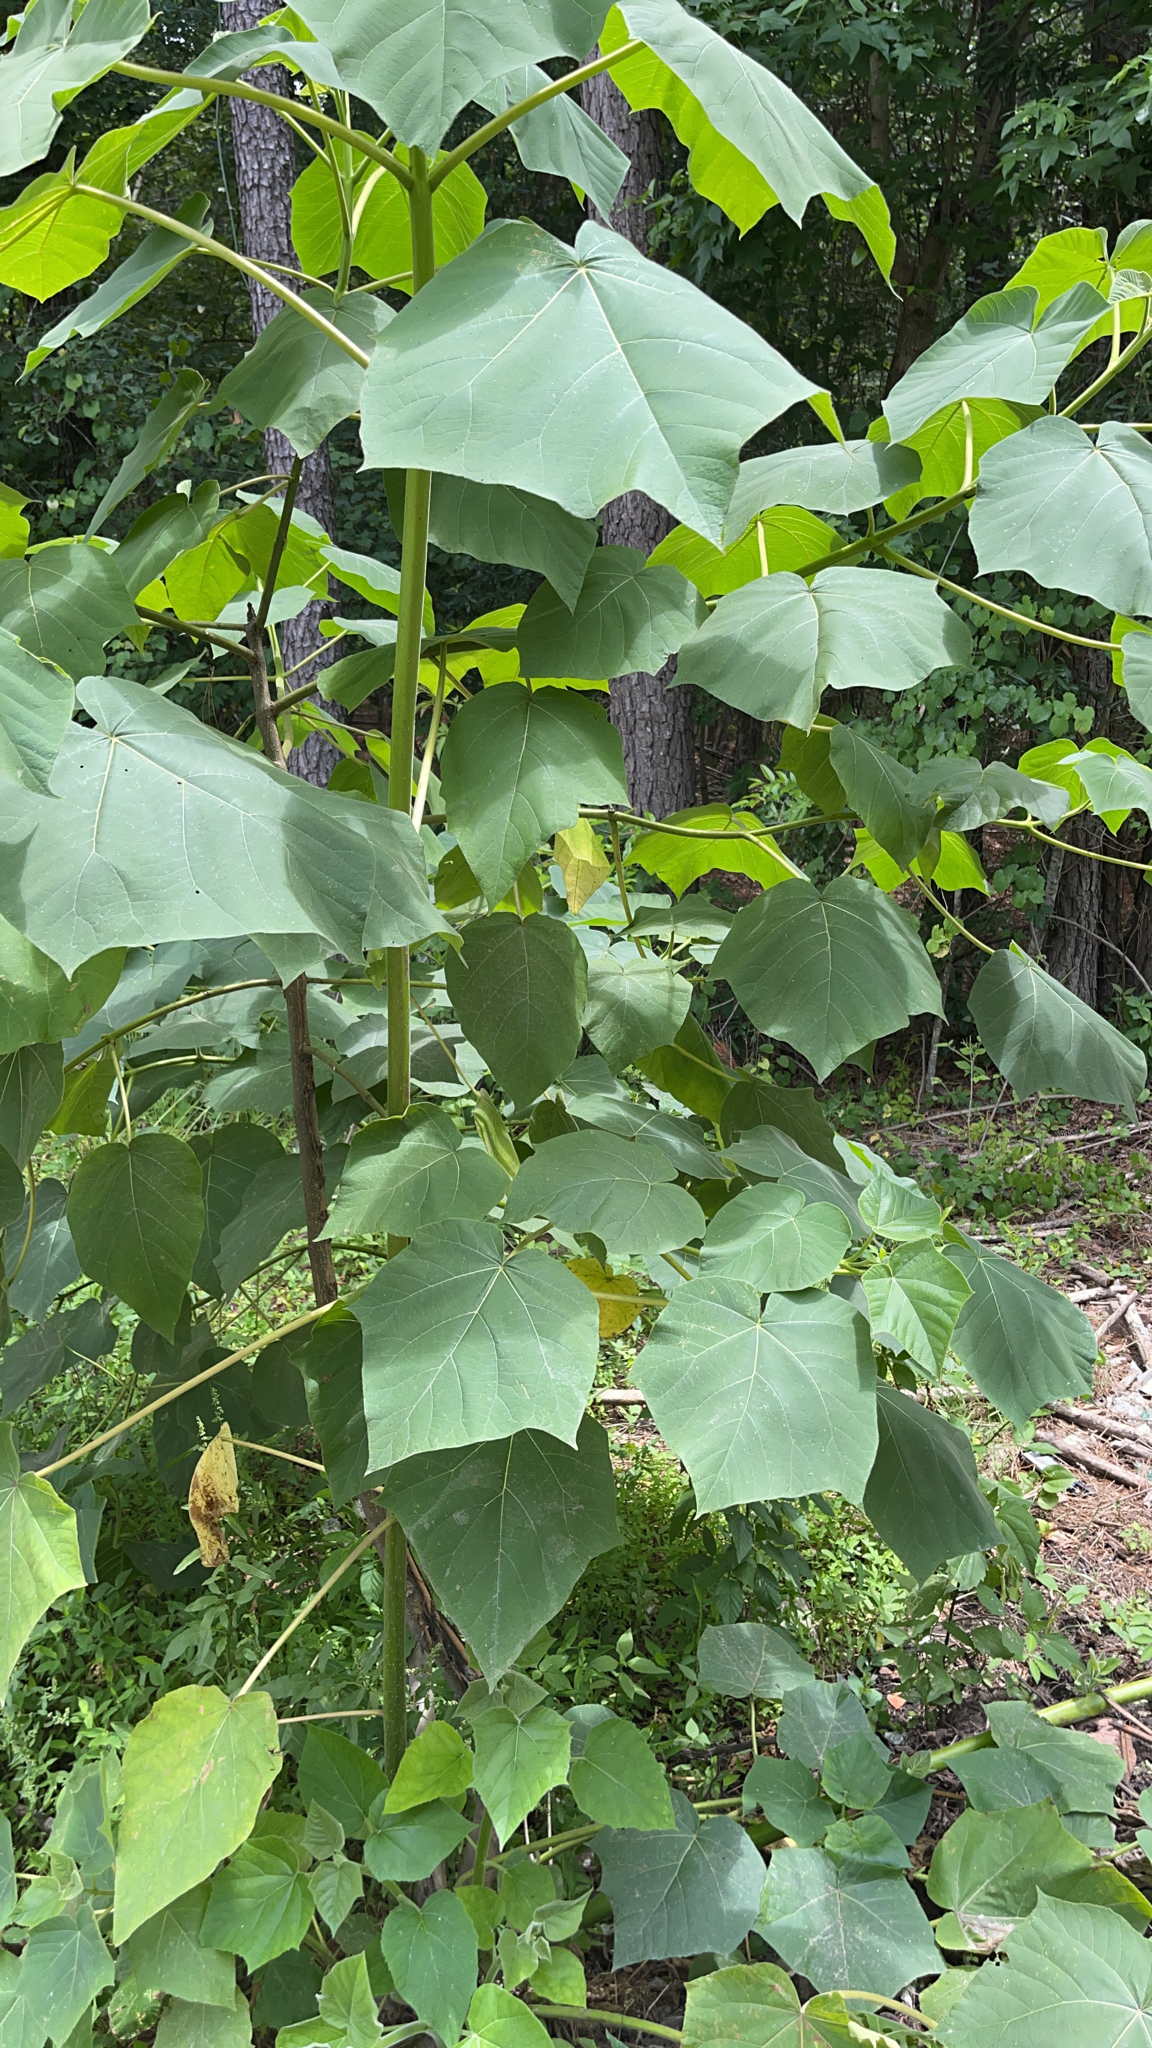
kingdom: Plantae
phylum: Tracheophyta
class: Magnoliopsida
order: Lamiales
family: Paulowniaceae
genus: Paulownia
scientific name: Paulownia tomentosa
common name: Foxglove-tree
